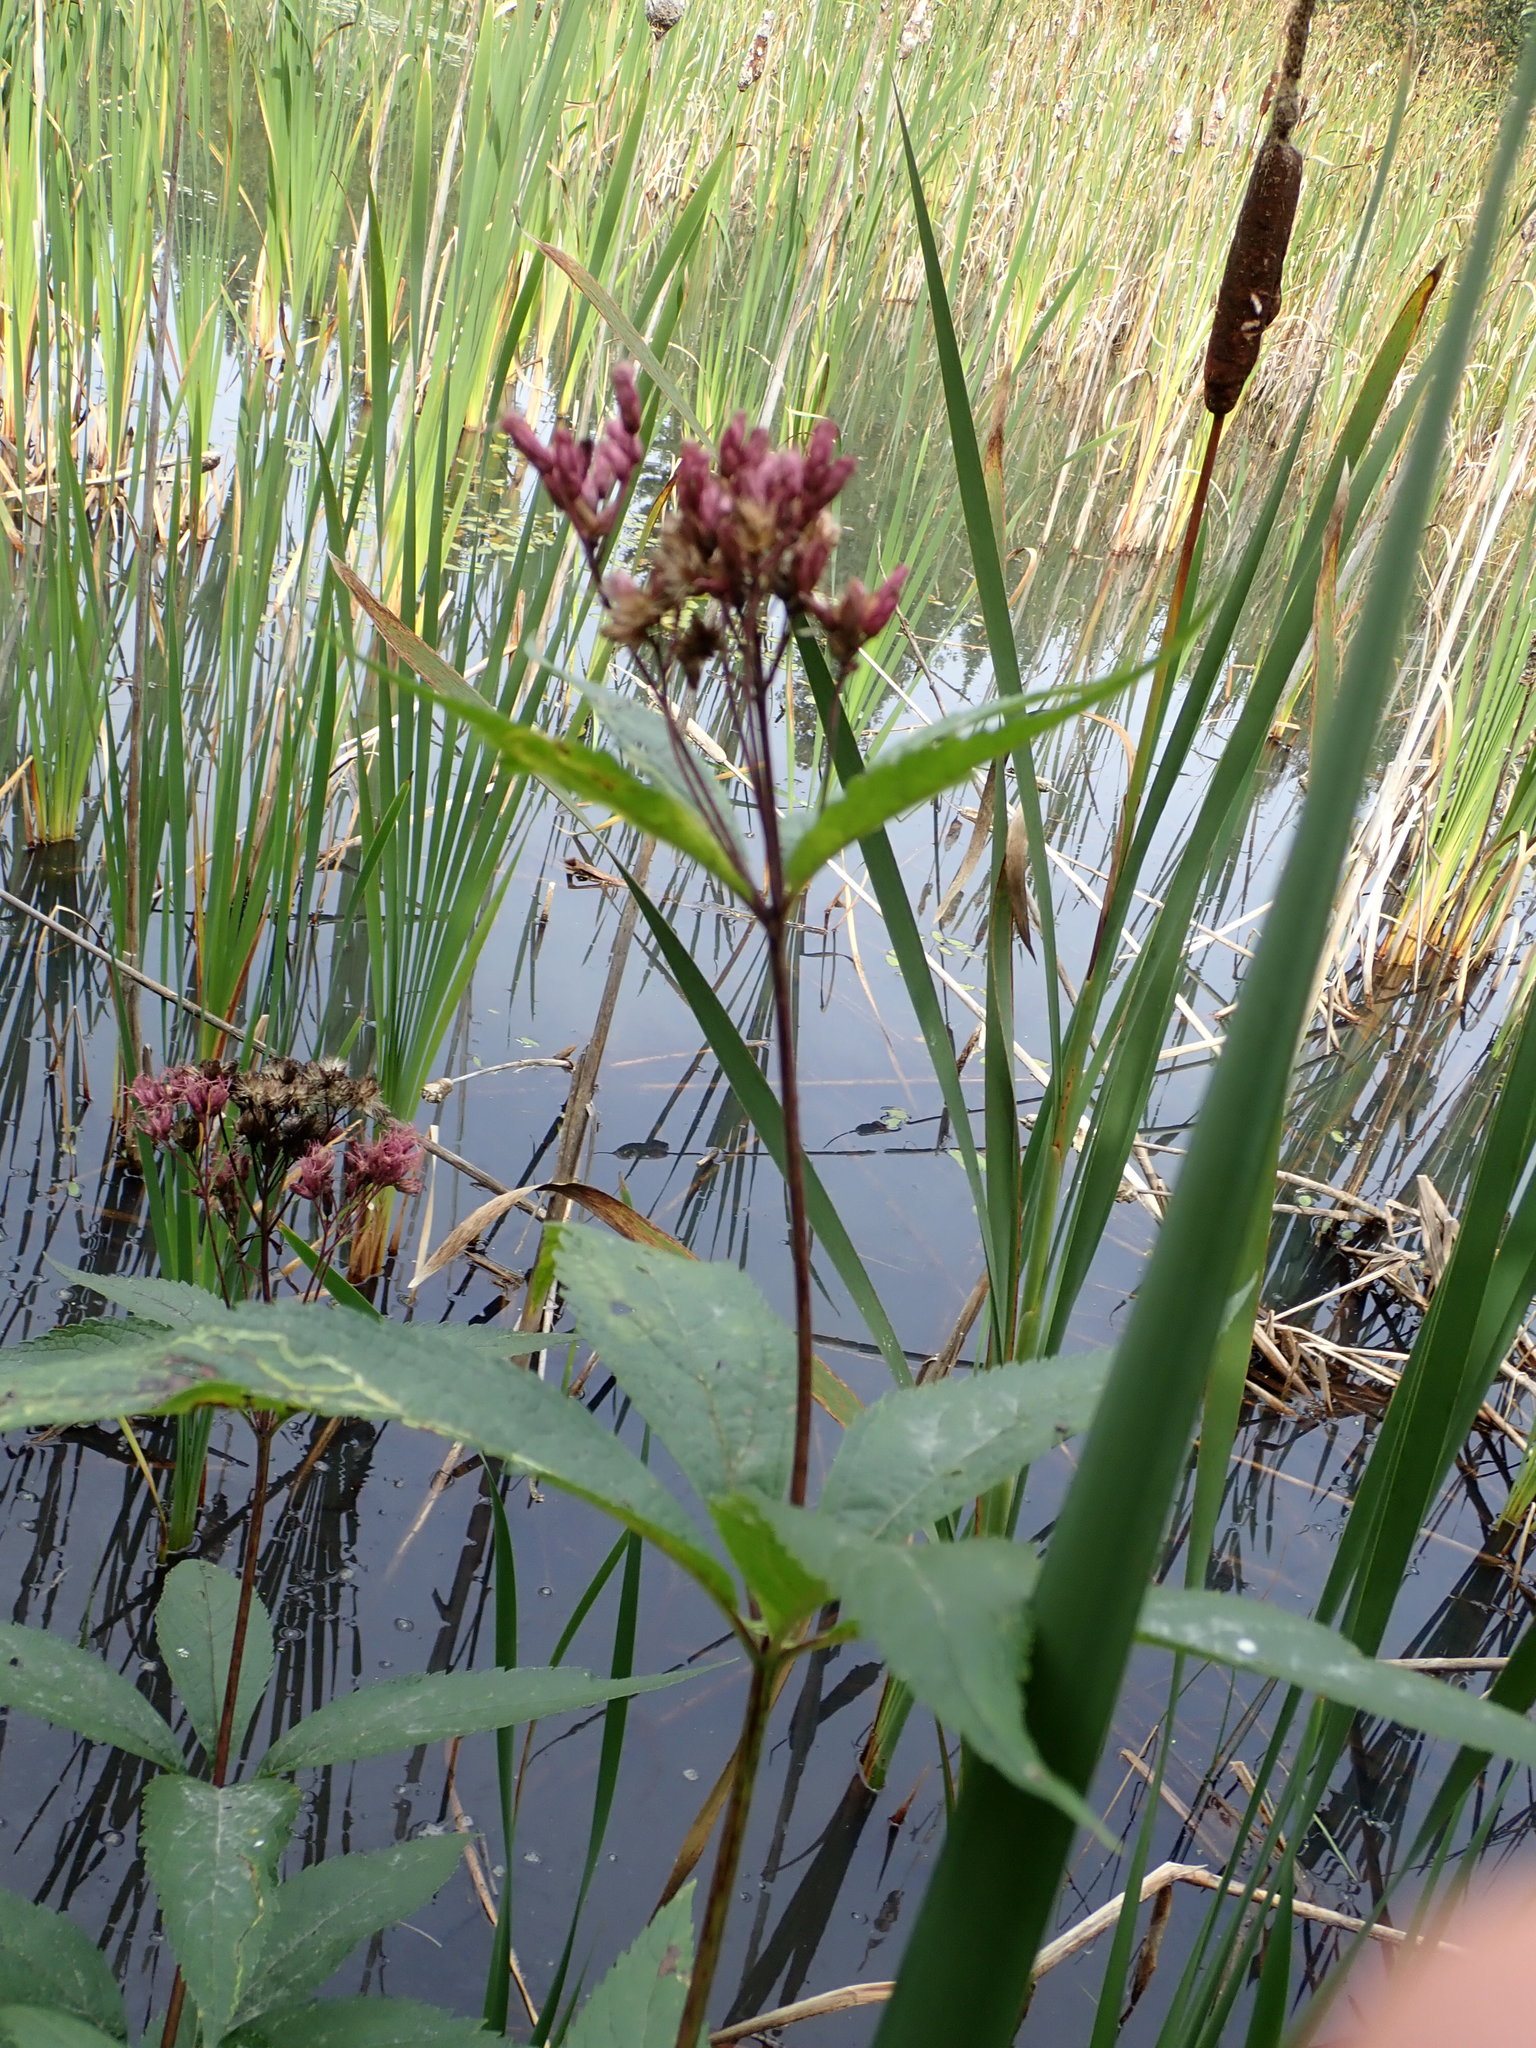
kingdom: Plantae
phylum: Tracheophyta
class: Magnoliopsida
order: Asterales
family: Asteraceae
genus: Eutrochium
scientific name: Eutrochium maculatum
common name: Spotted joe pye weed
